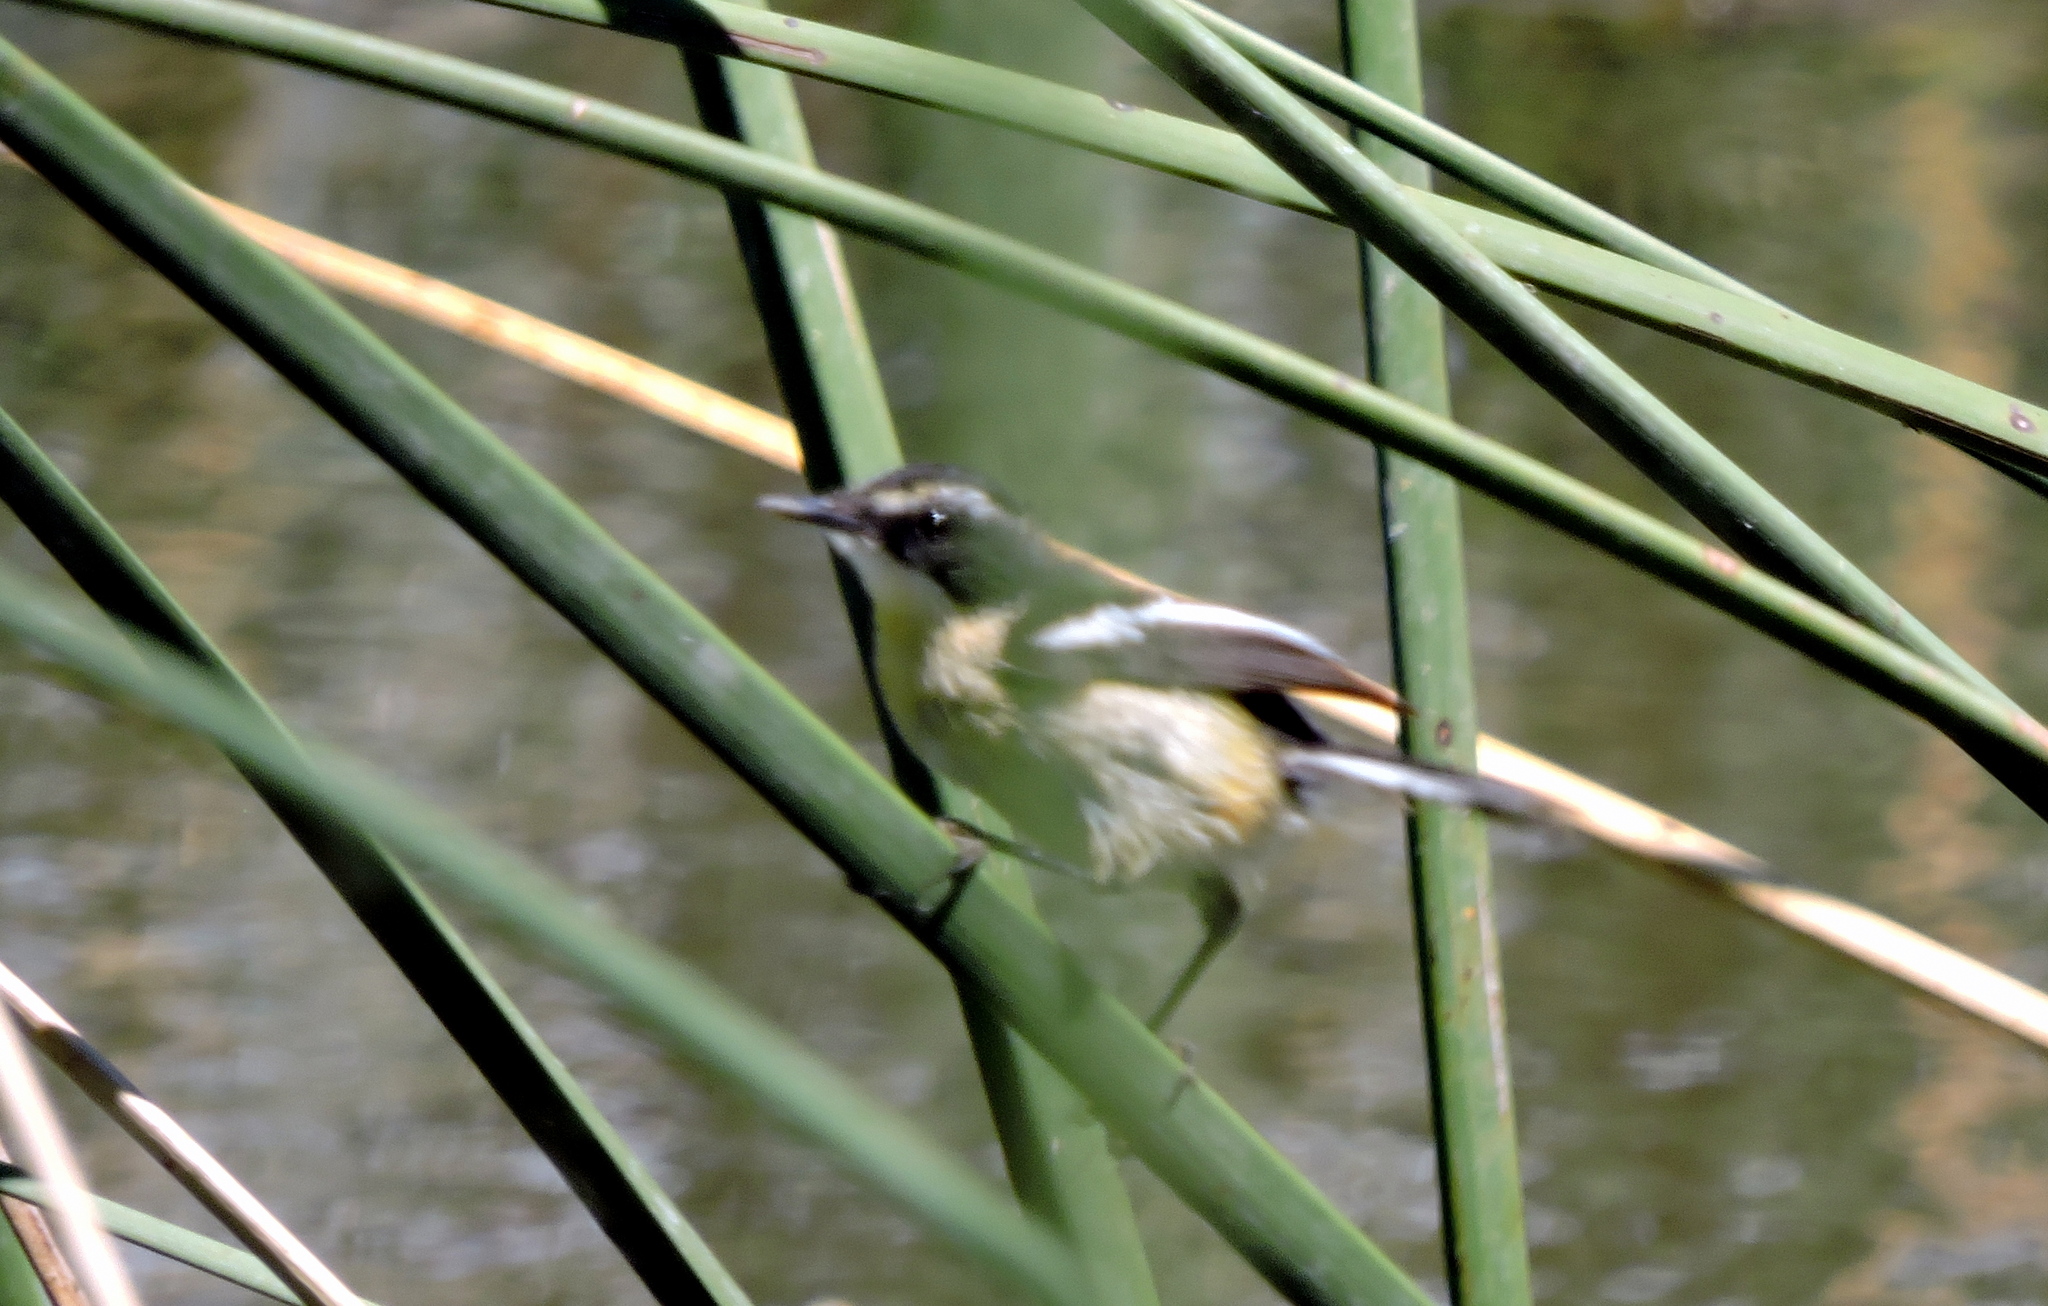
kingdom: Animalia
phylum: Chordata
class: Aves
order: Passeriformes
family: Tyrannidae
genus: Tachuris
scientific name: Tachuris rubrigastra
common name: Many-colored rush tyrant
